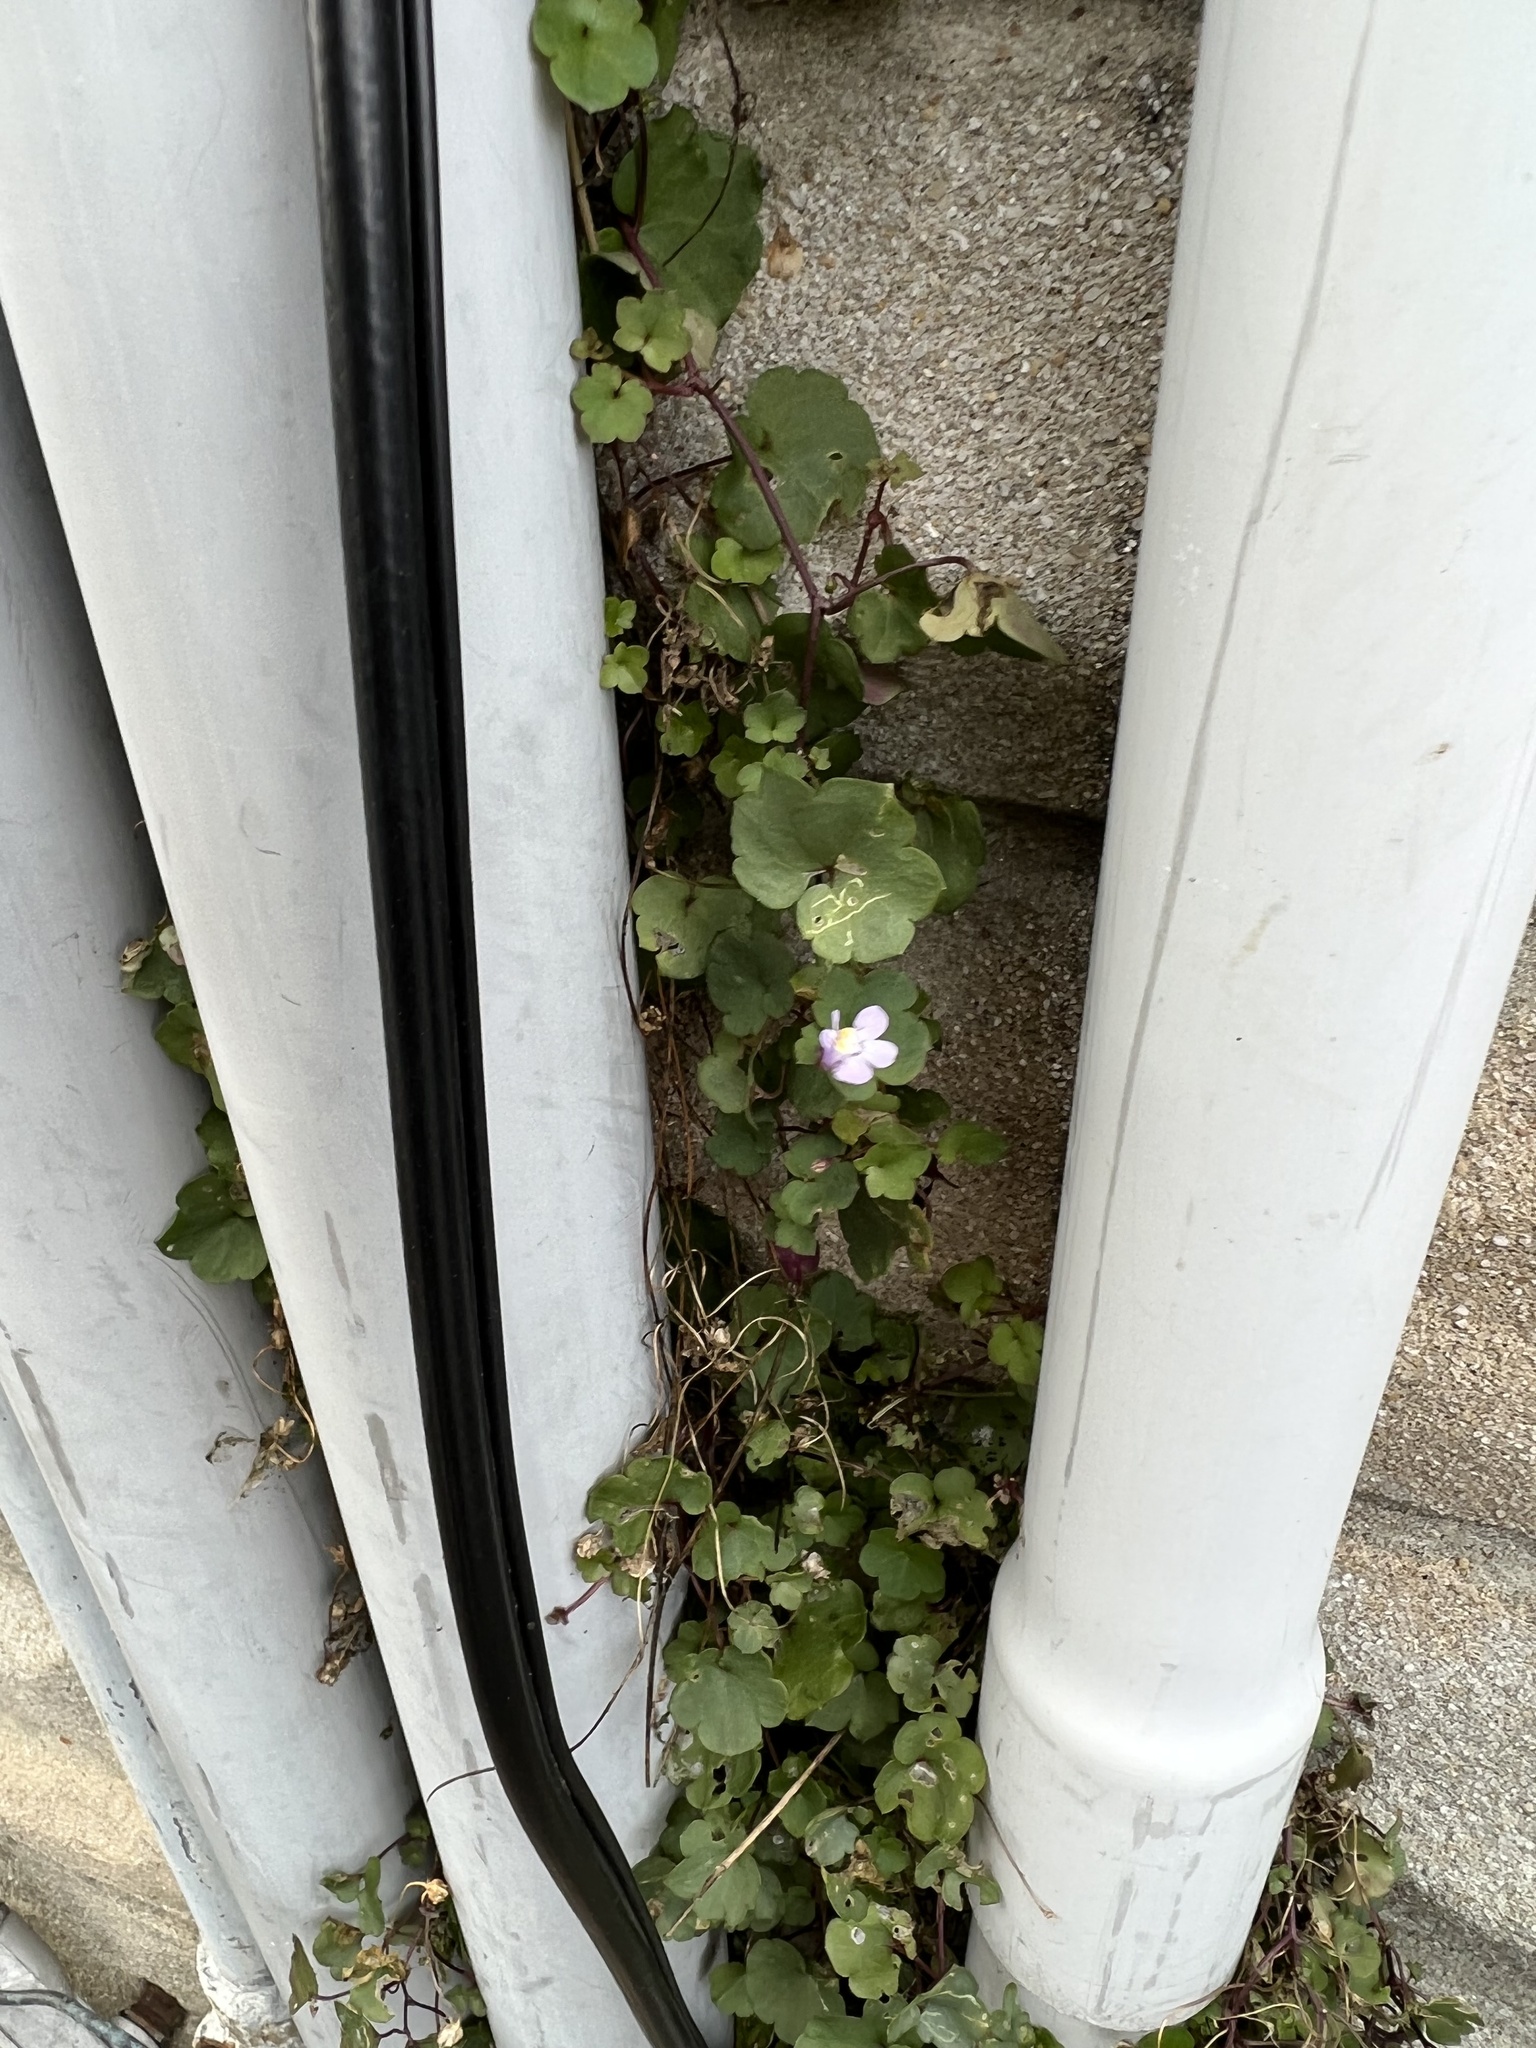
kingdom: Plantae
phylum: Tracheophyta
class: Magnoliopsida
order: Lamiales
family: Plantaginaceae
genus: Cymbalaria
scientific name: Cymbalaria muralis
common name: Ivy-leaved toadflax
